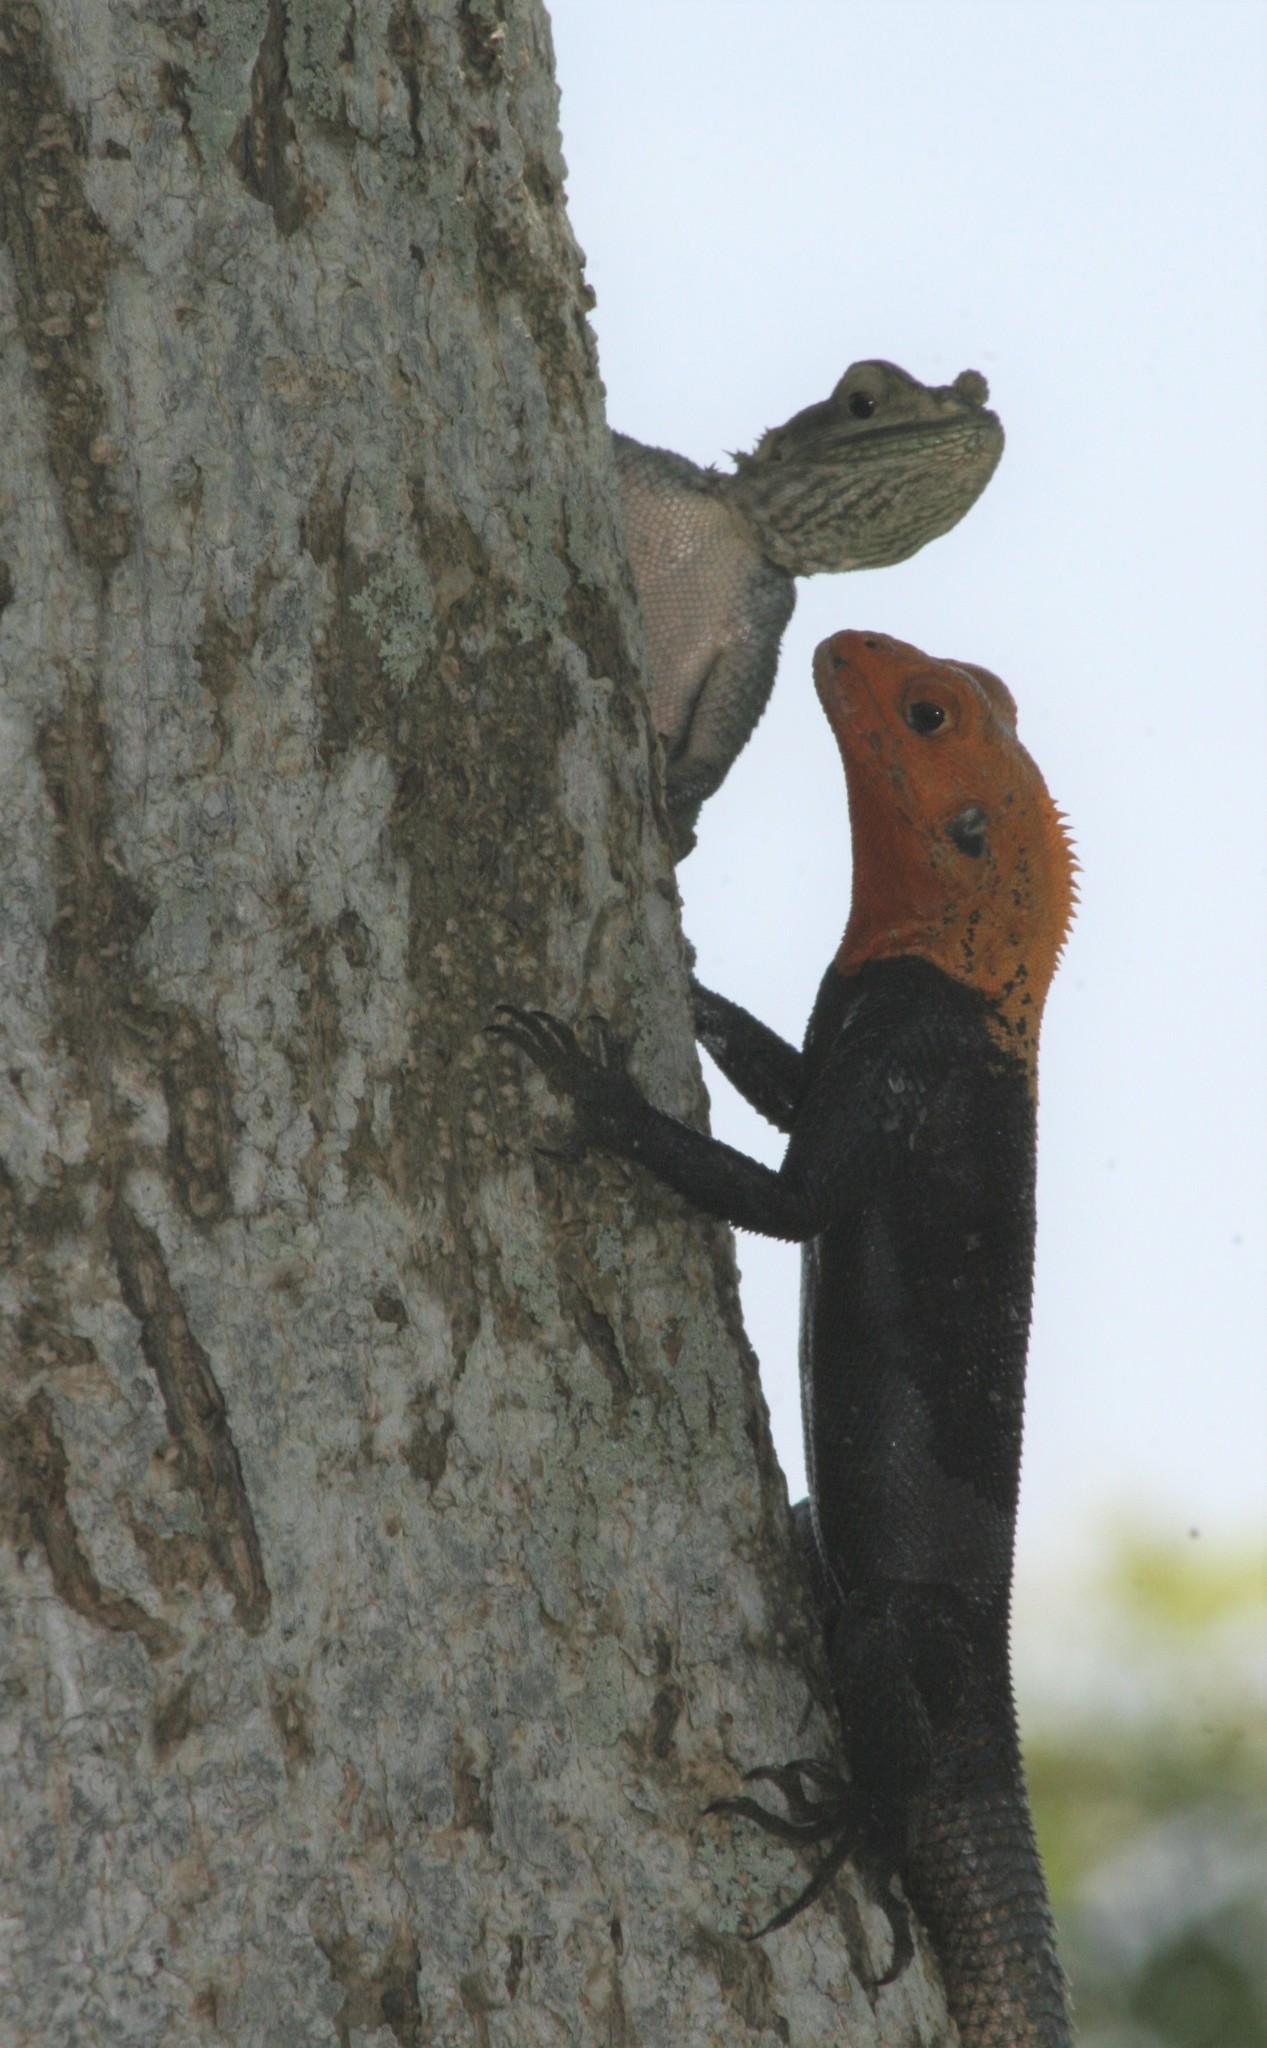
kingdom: Animalia
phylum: Chordata
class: Squamata
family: Agamidae
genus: Agama
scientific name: Agama picticauda
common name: Red-headed agama
